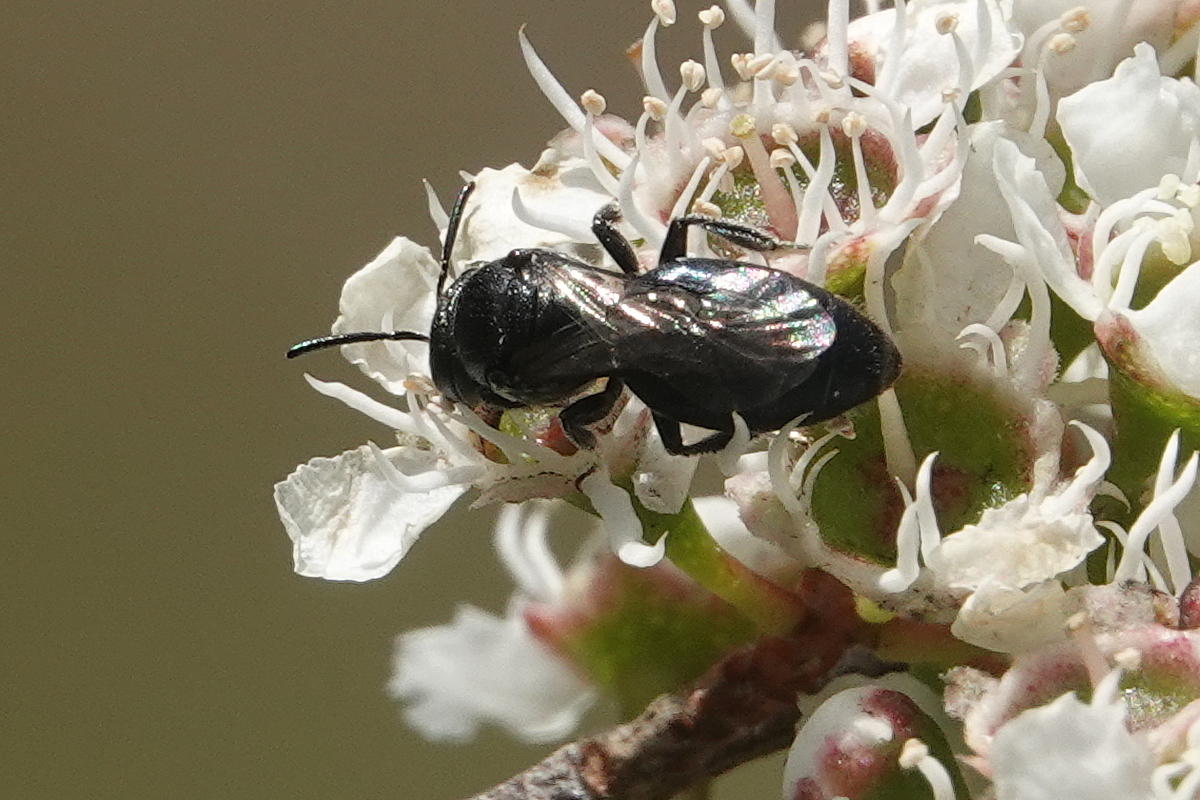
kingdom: Animalia
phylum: Arthropoda
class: Insecta
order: Hymenoptera
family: Colletidae
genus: Euryglossa
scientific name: Euryglossa ephippiata
